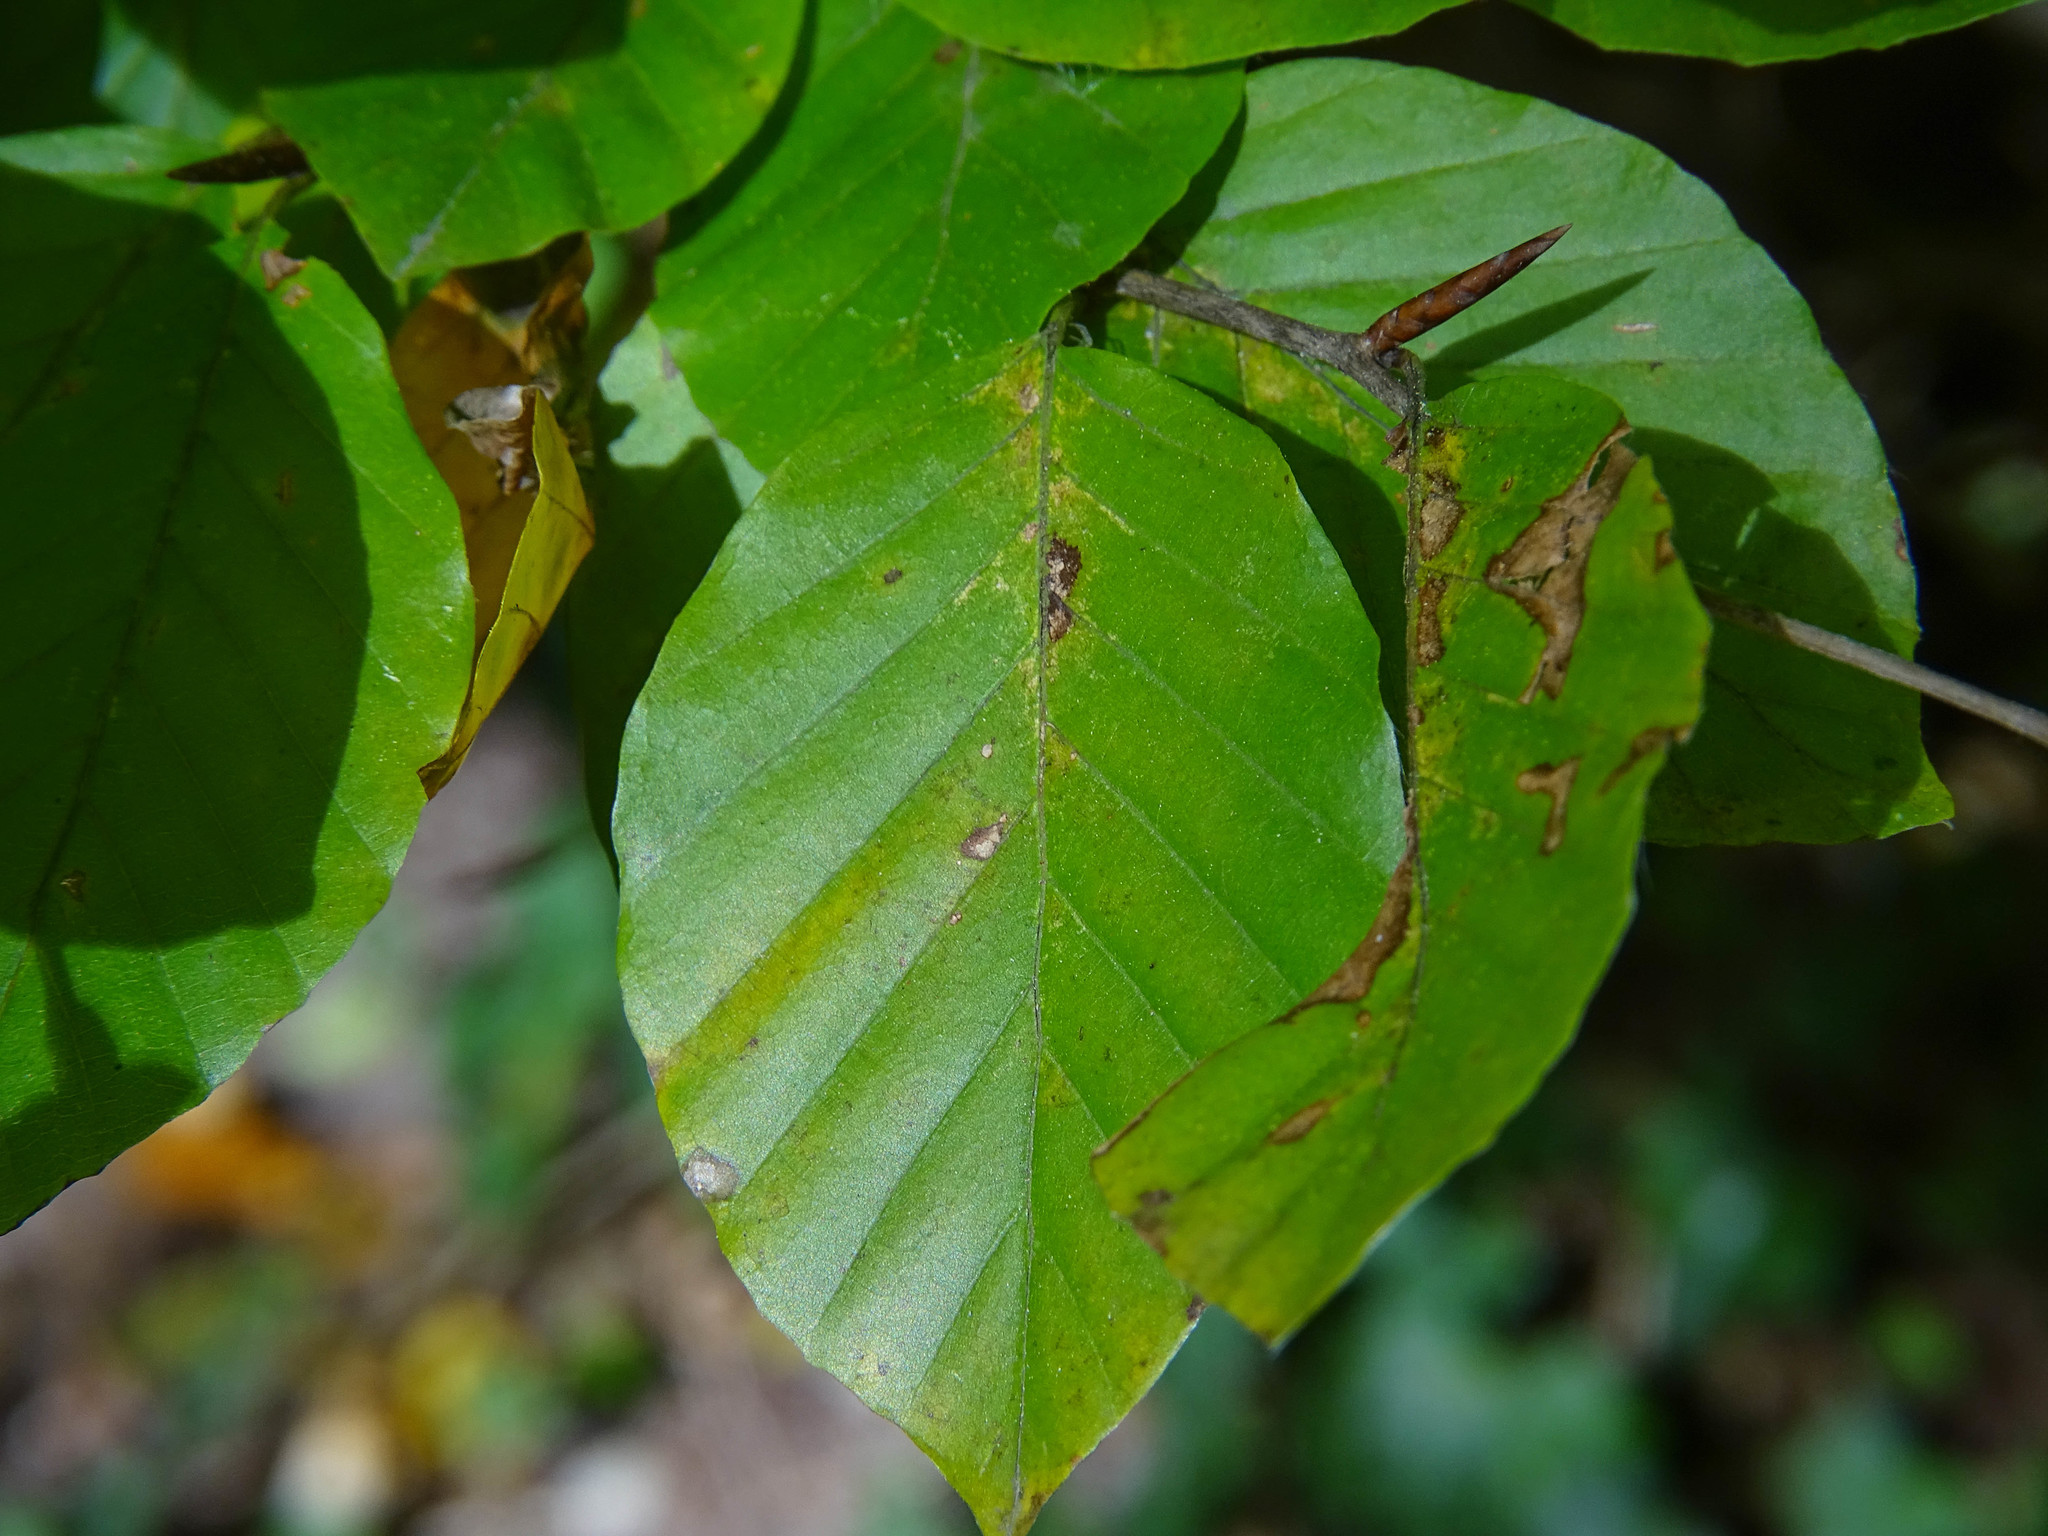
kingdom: Plantae
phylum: Tracheophyta
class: Magnoliopsida
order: Fagales
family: Fagaceae
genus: Fagus
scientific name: Fagus sylvatica
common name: Beech
